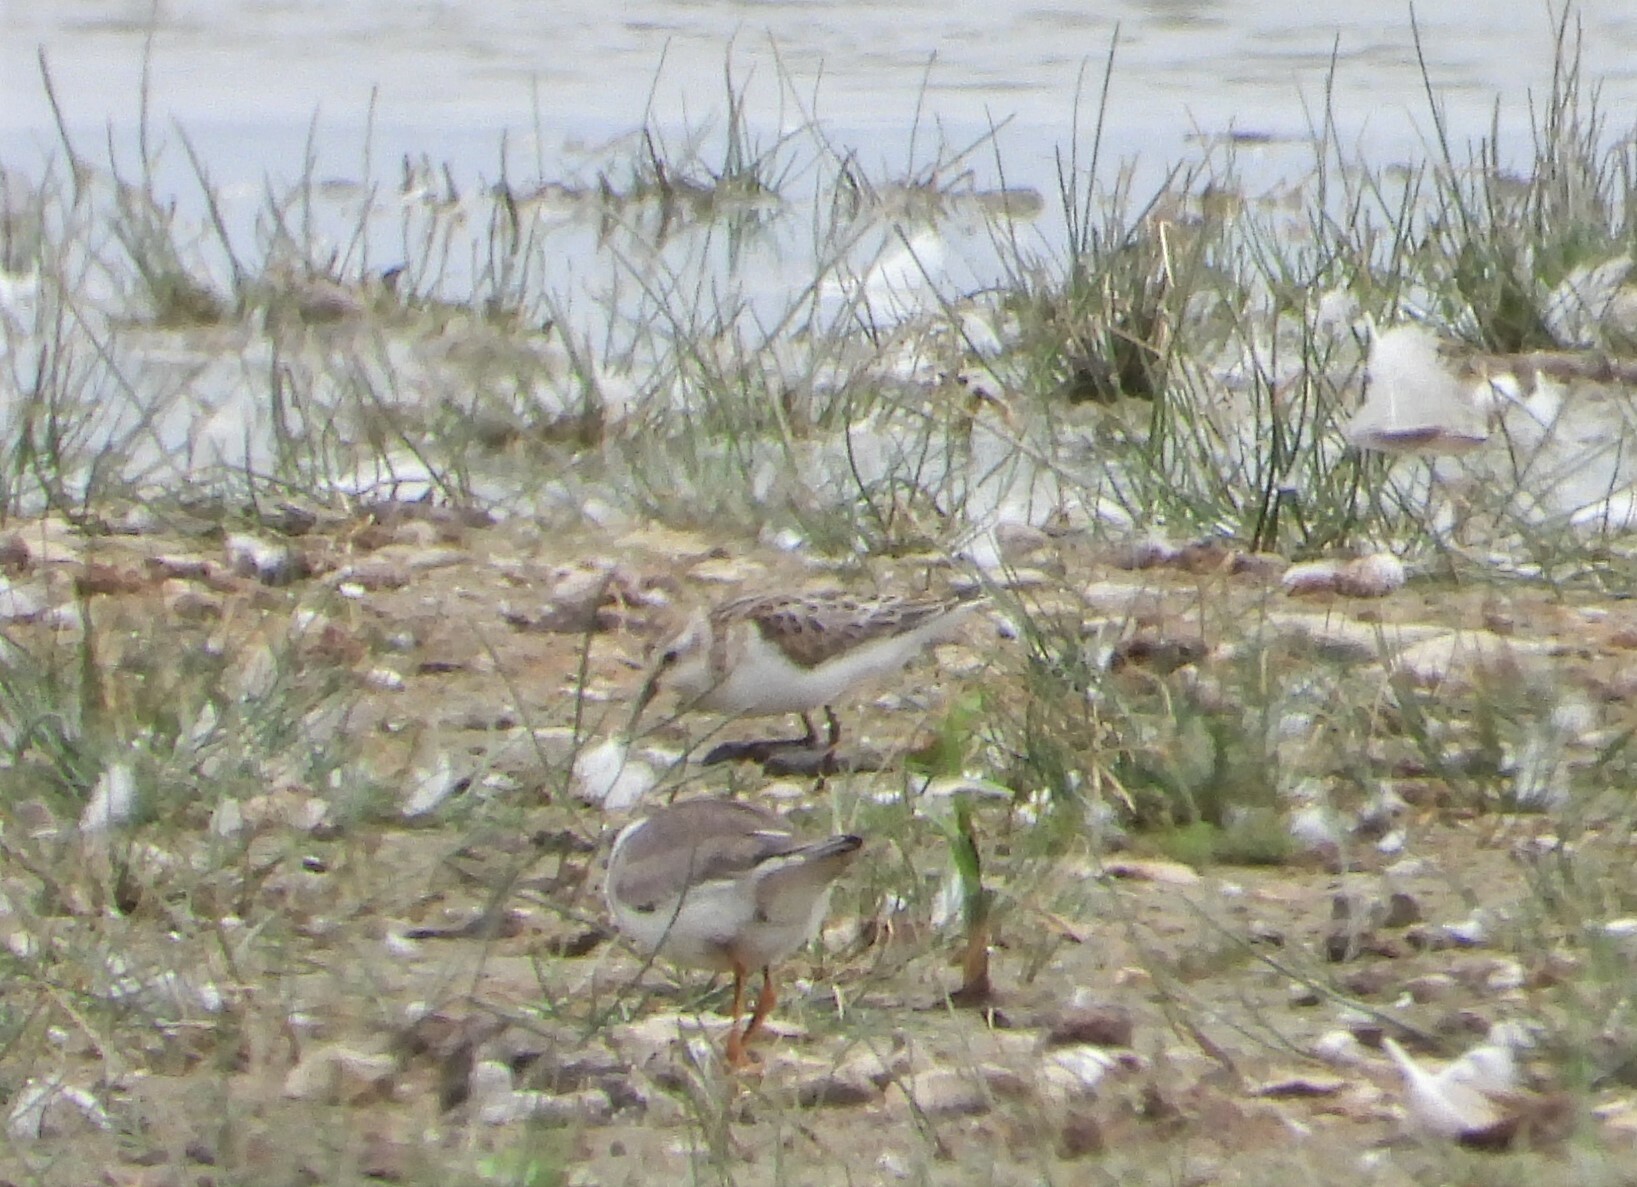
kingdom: Animalia
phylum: Chordata
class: Aves
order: Charadriiformes
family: Scolopacidae
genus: Calidris
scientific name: Calidris minuta
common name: Little stint
